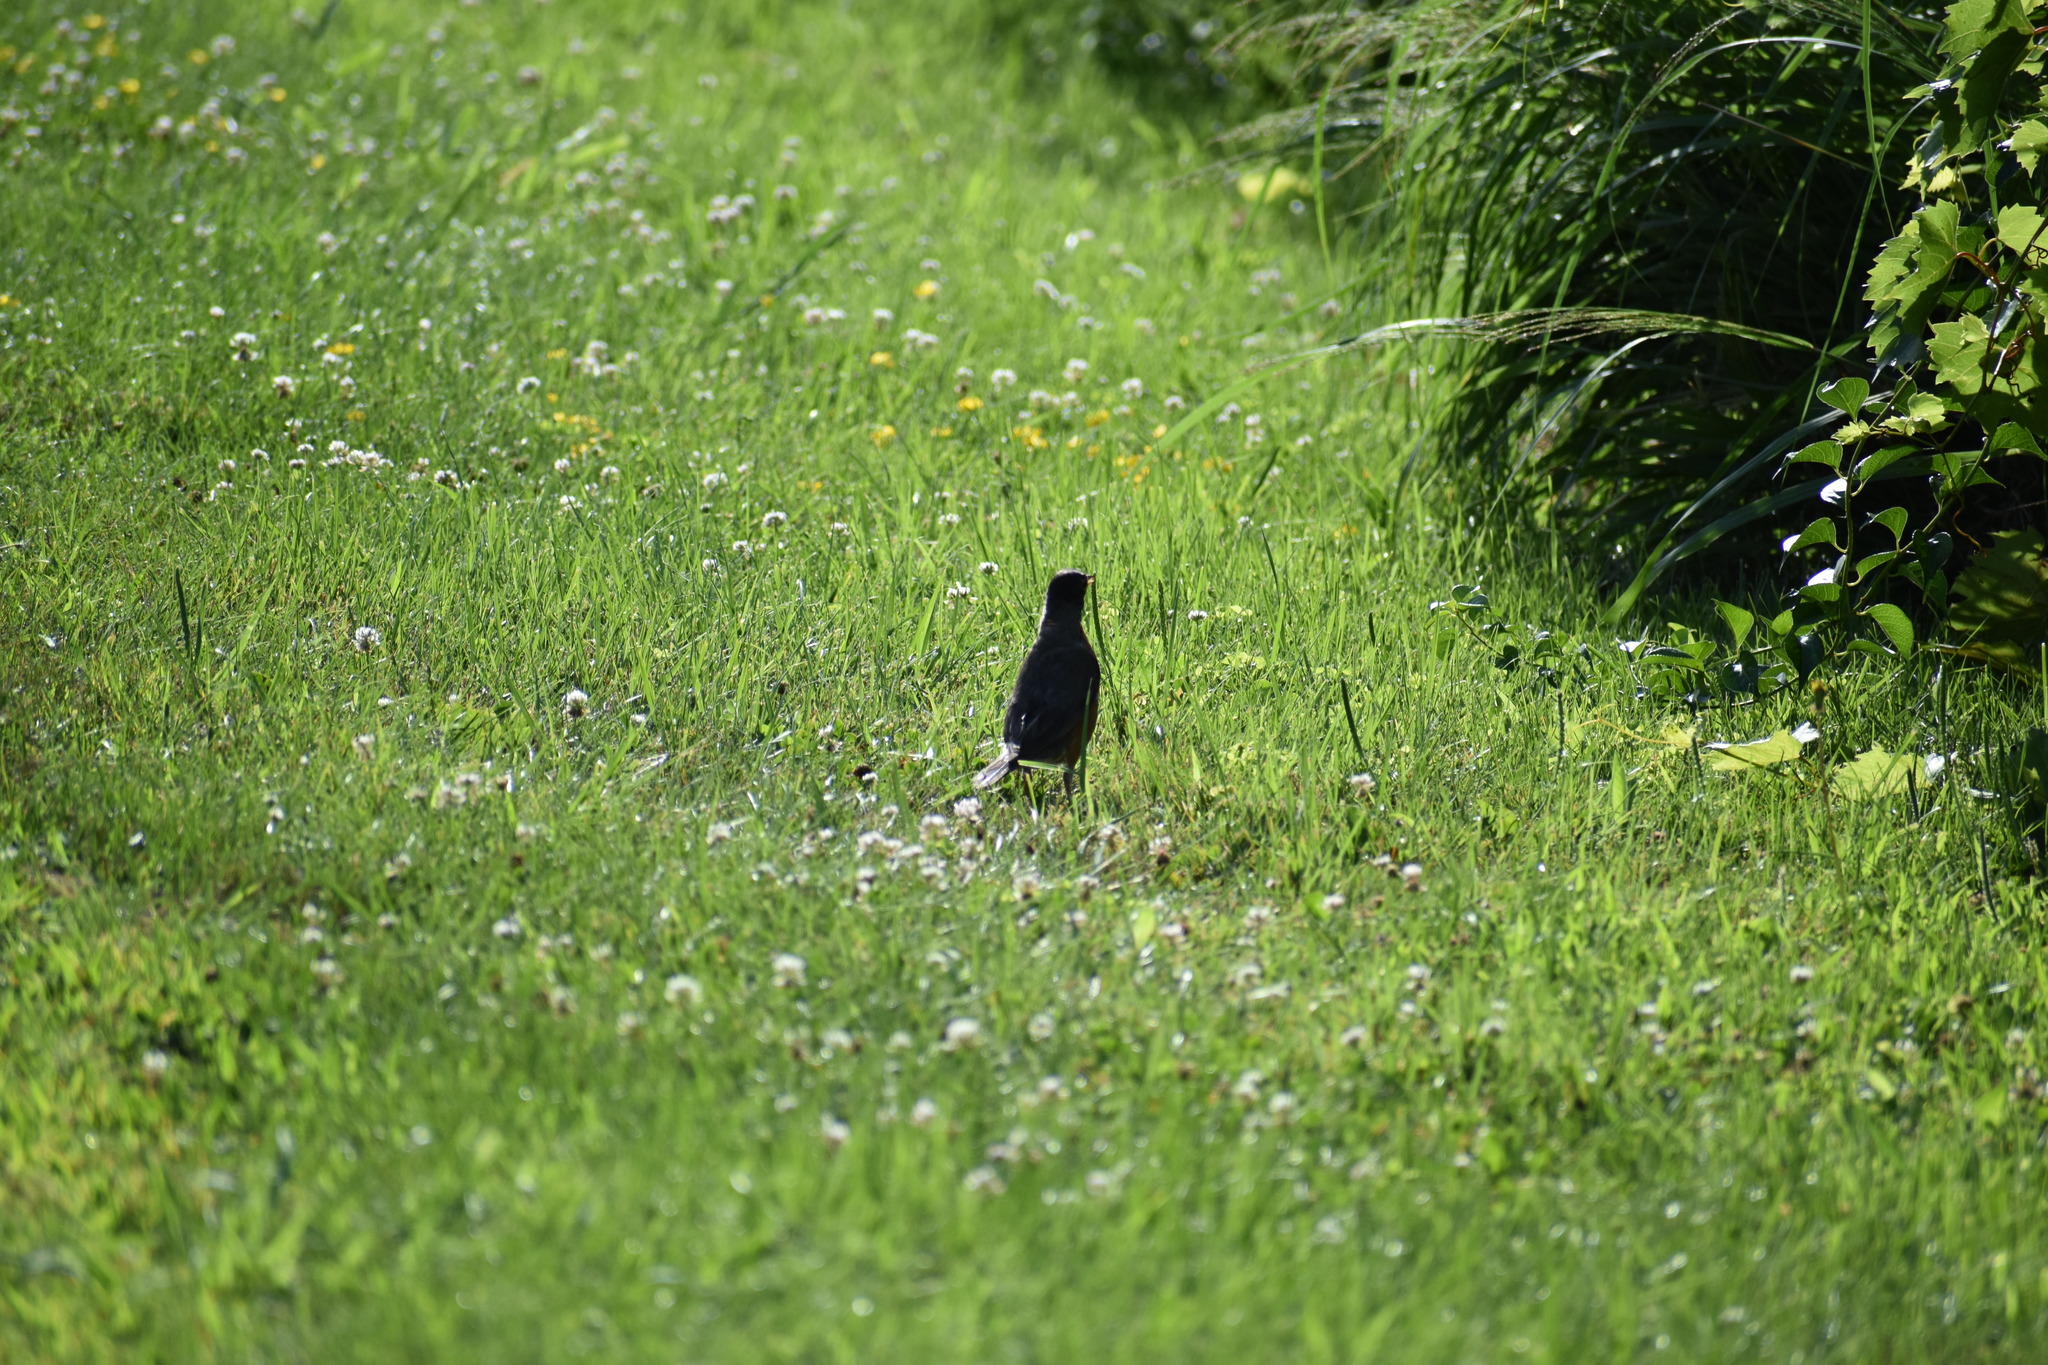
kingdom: Animalia
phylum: Chordata
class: Aves
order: Passeriformes
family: Turdidae
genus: Turdus
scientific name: Turdus migratorius
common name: American robin
